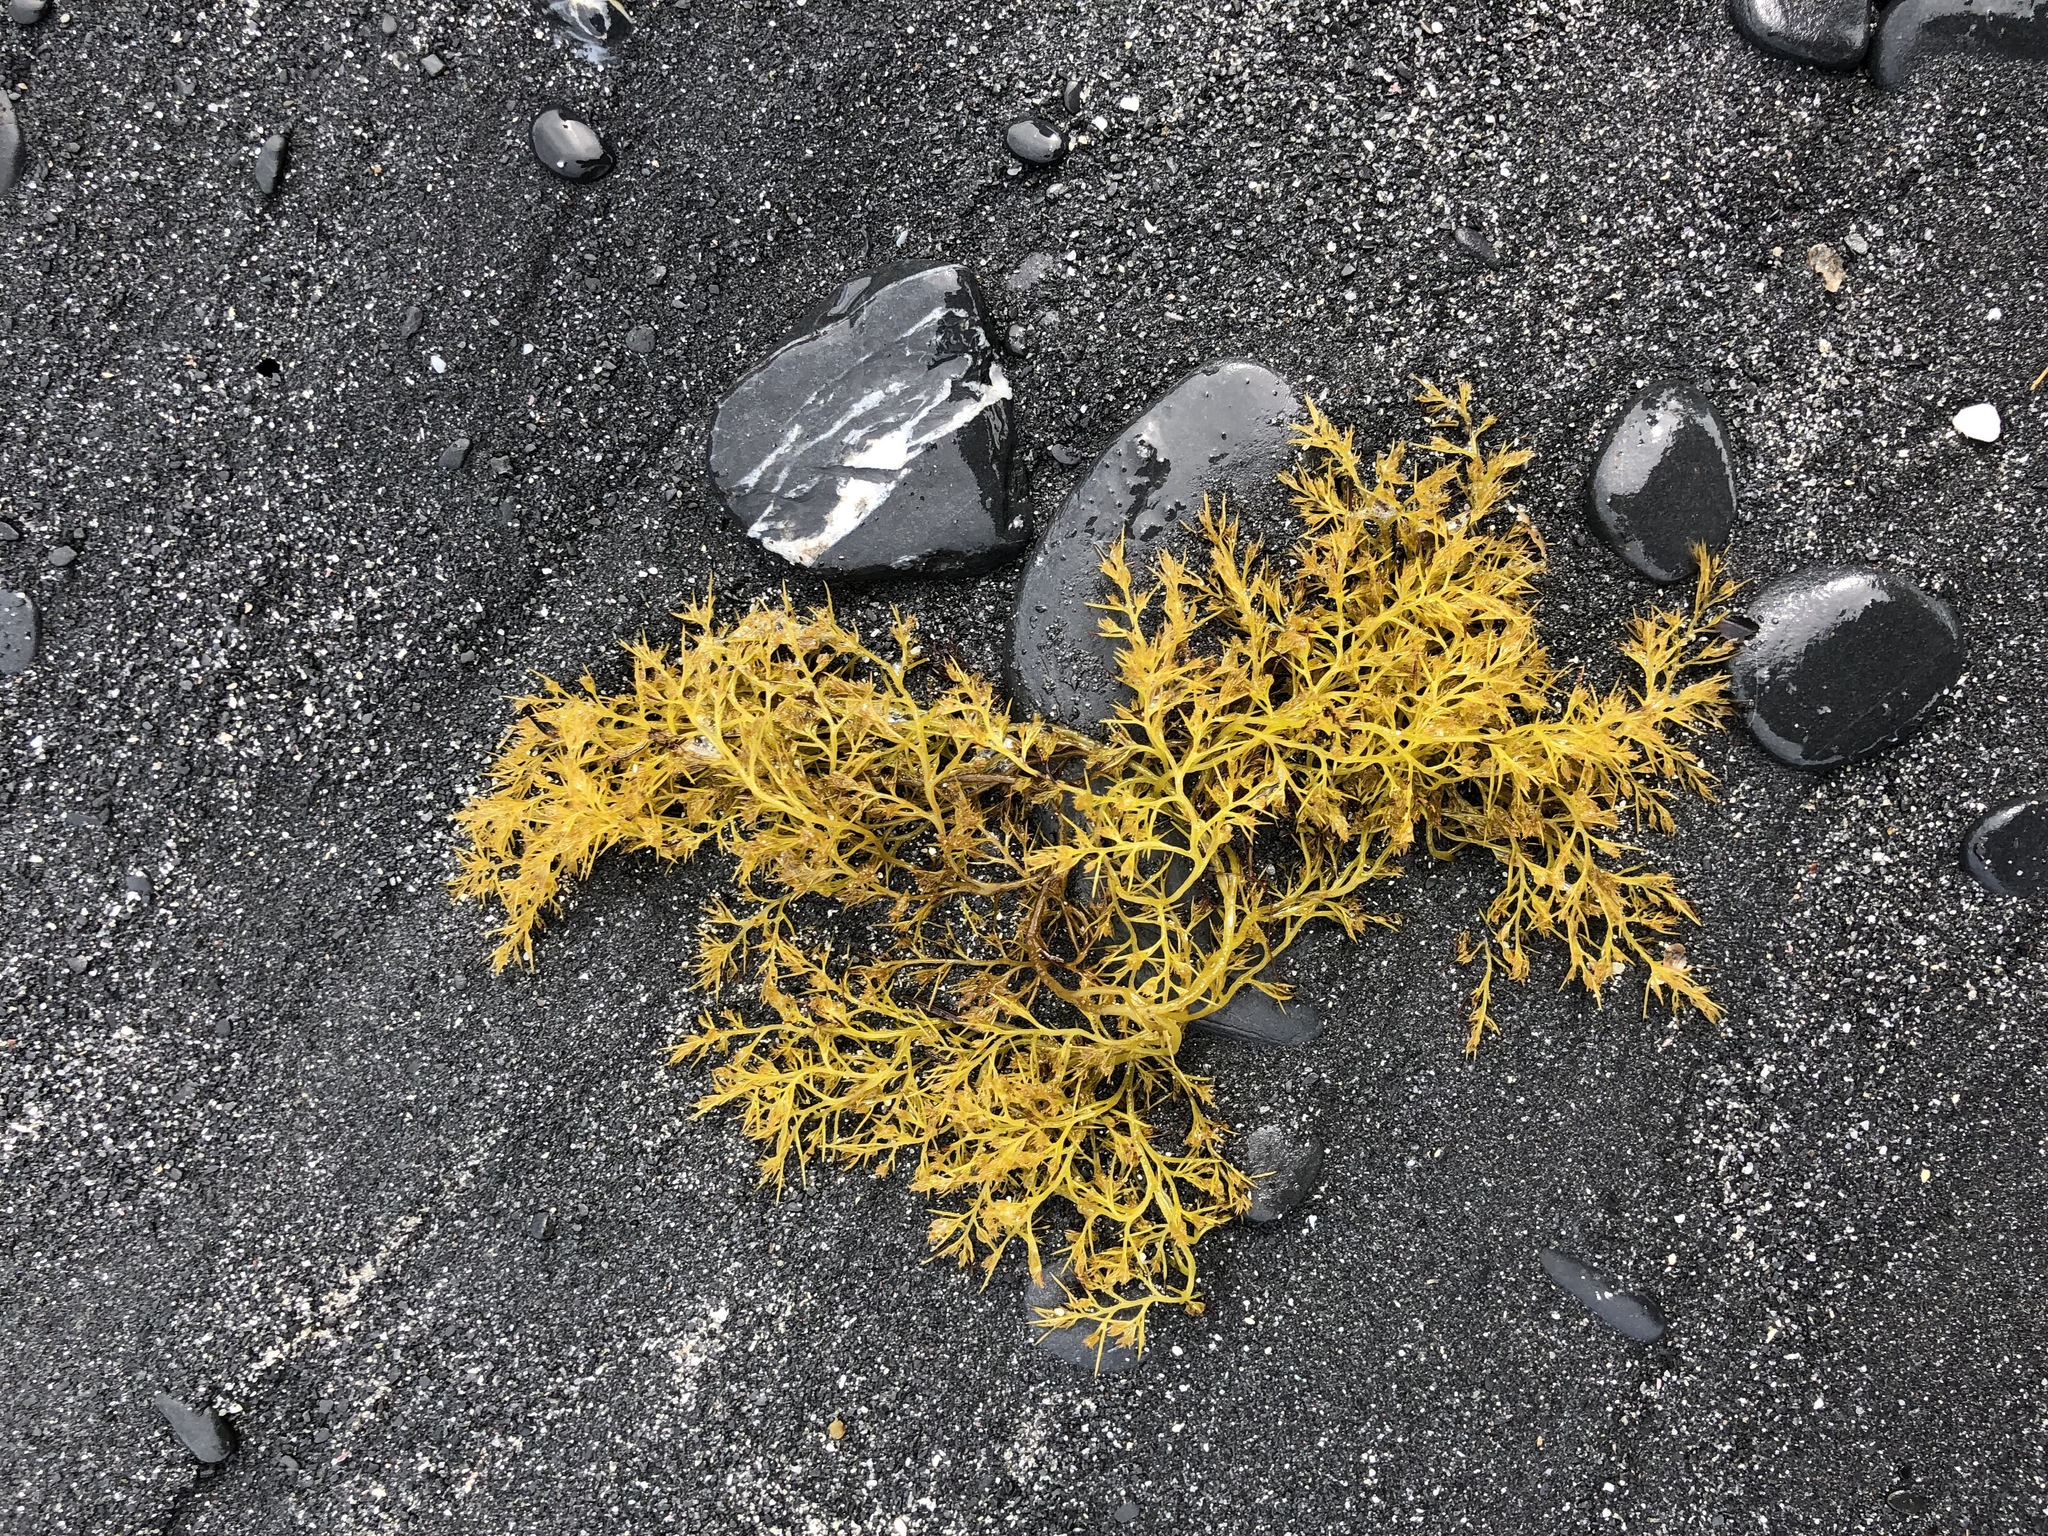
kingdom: Plantae
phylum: Rhodophyta
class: Florideophyceae
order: Ceramiales
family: Rhodomelaceae
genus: Odonthalia
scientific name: Odonthalia floccosa
